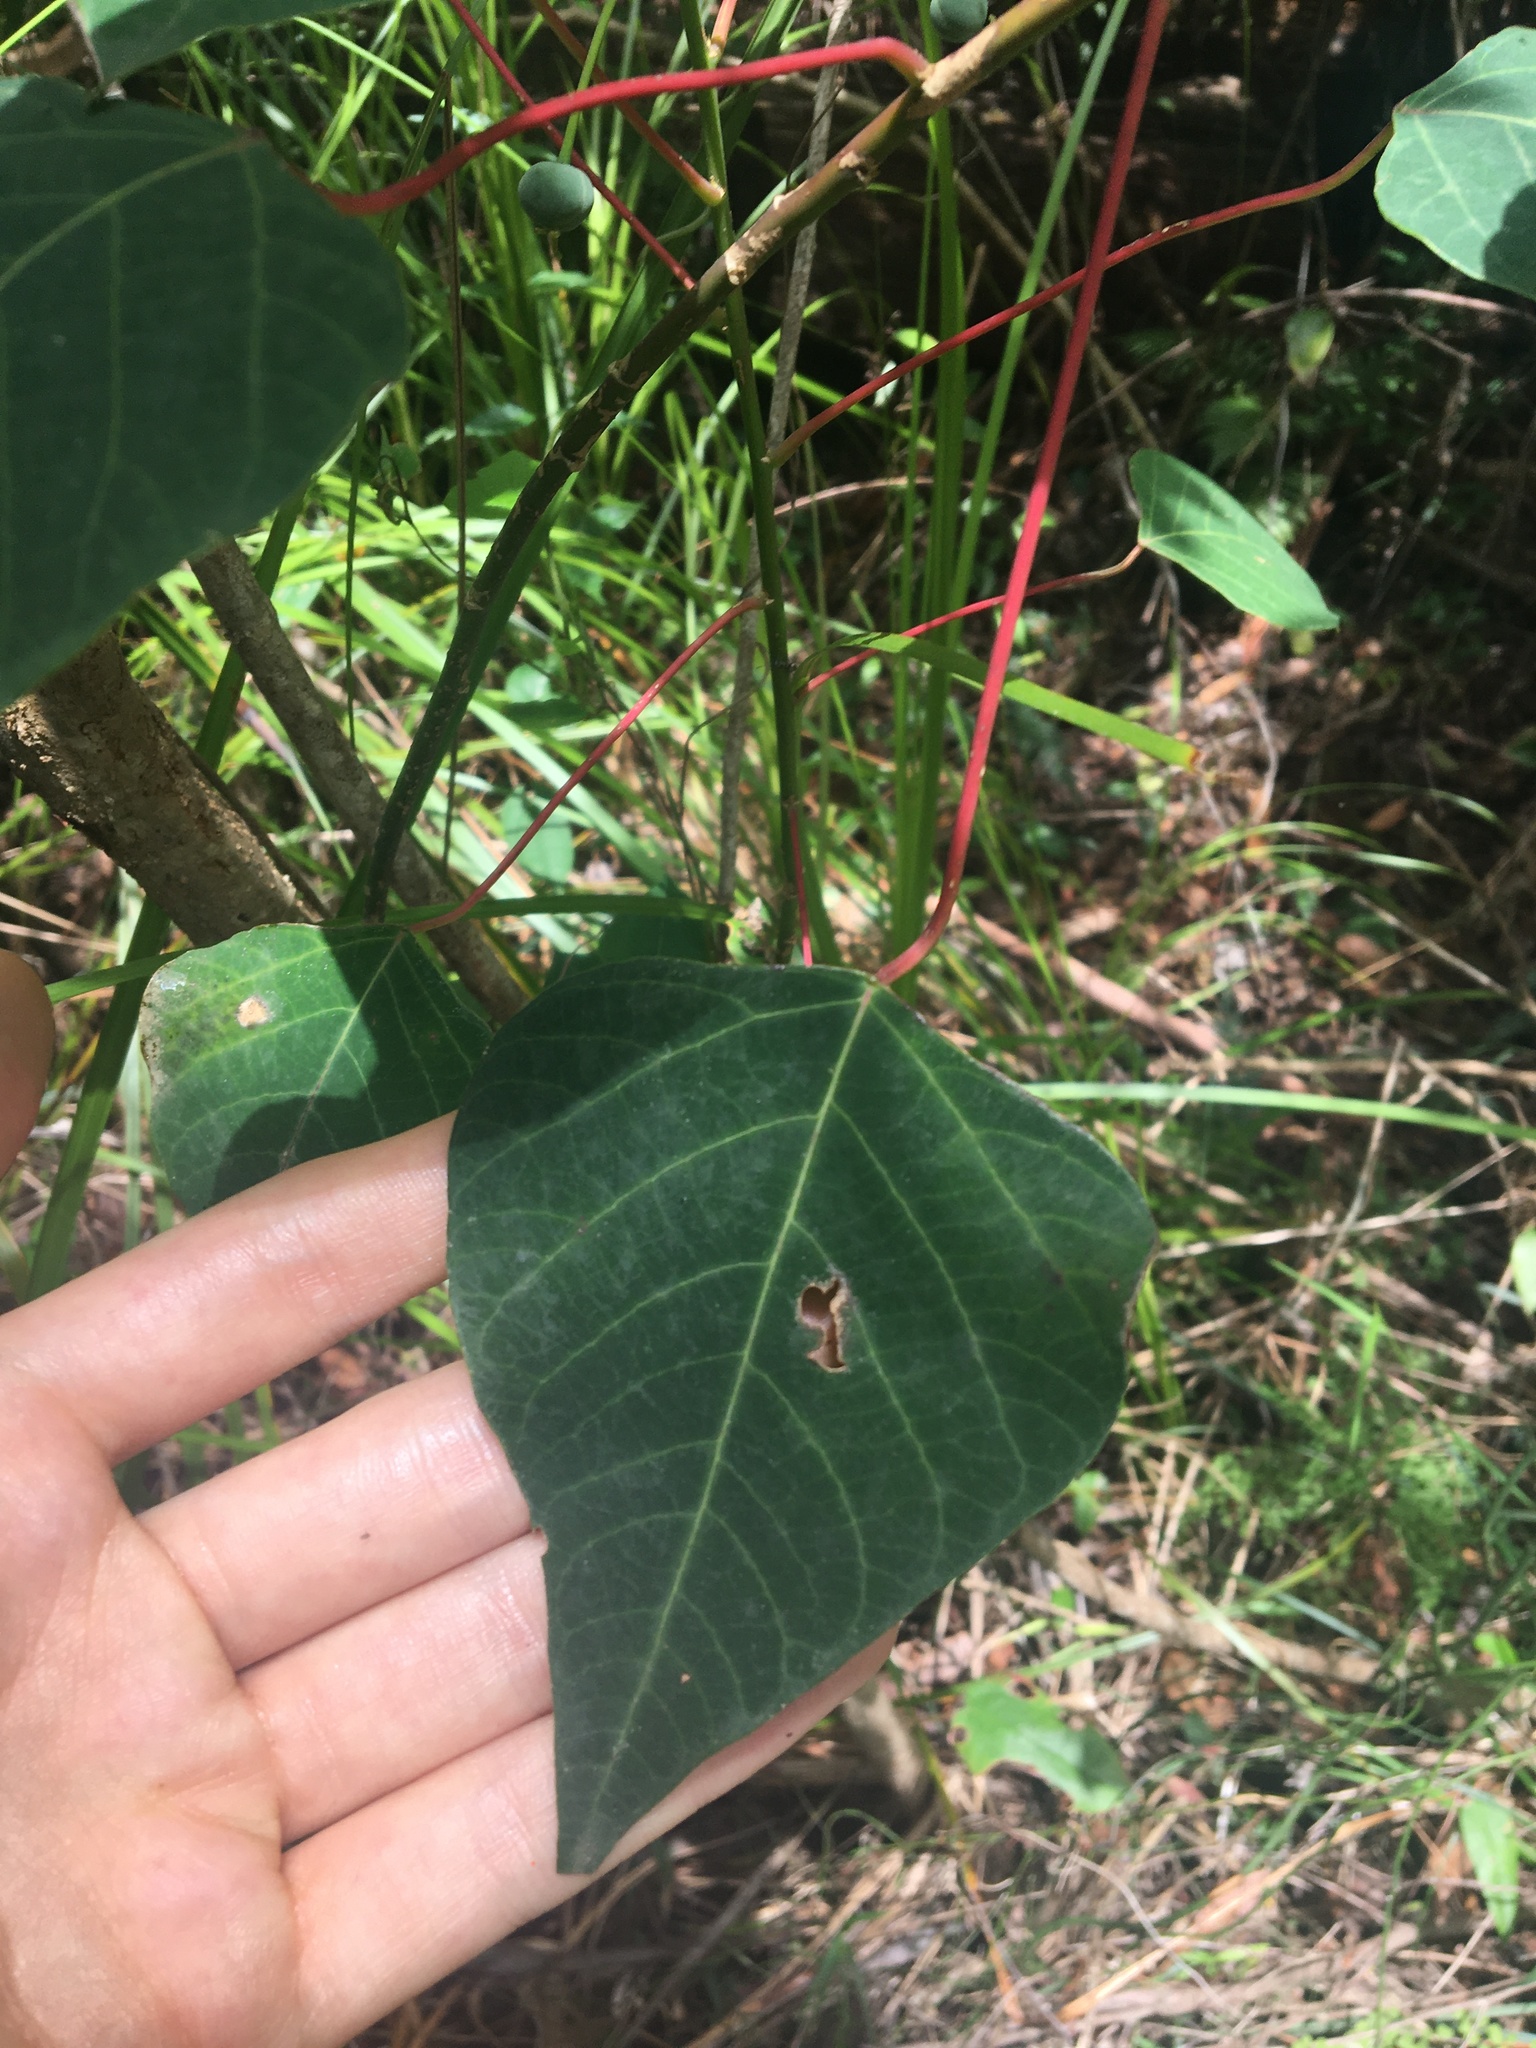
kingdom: Plantae
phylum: Tracheophyta
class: Magnoliopsida
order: Malpighiales
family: Euphorbiaceae
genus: Homalanthus
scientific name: Homalanthus populifolius
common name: Queensland poplar
